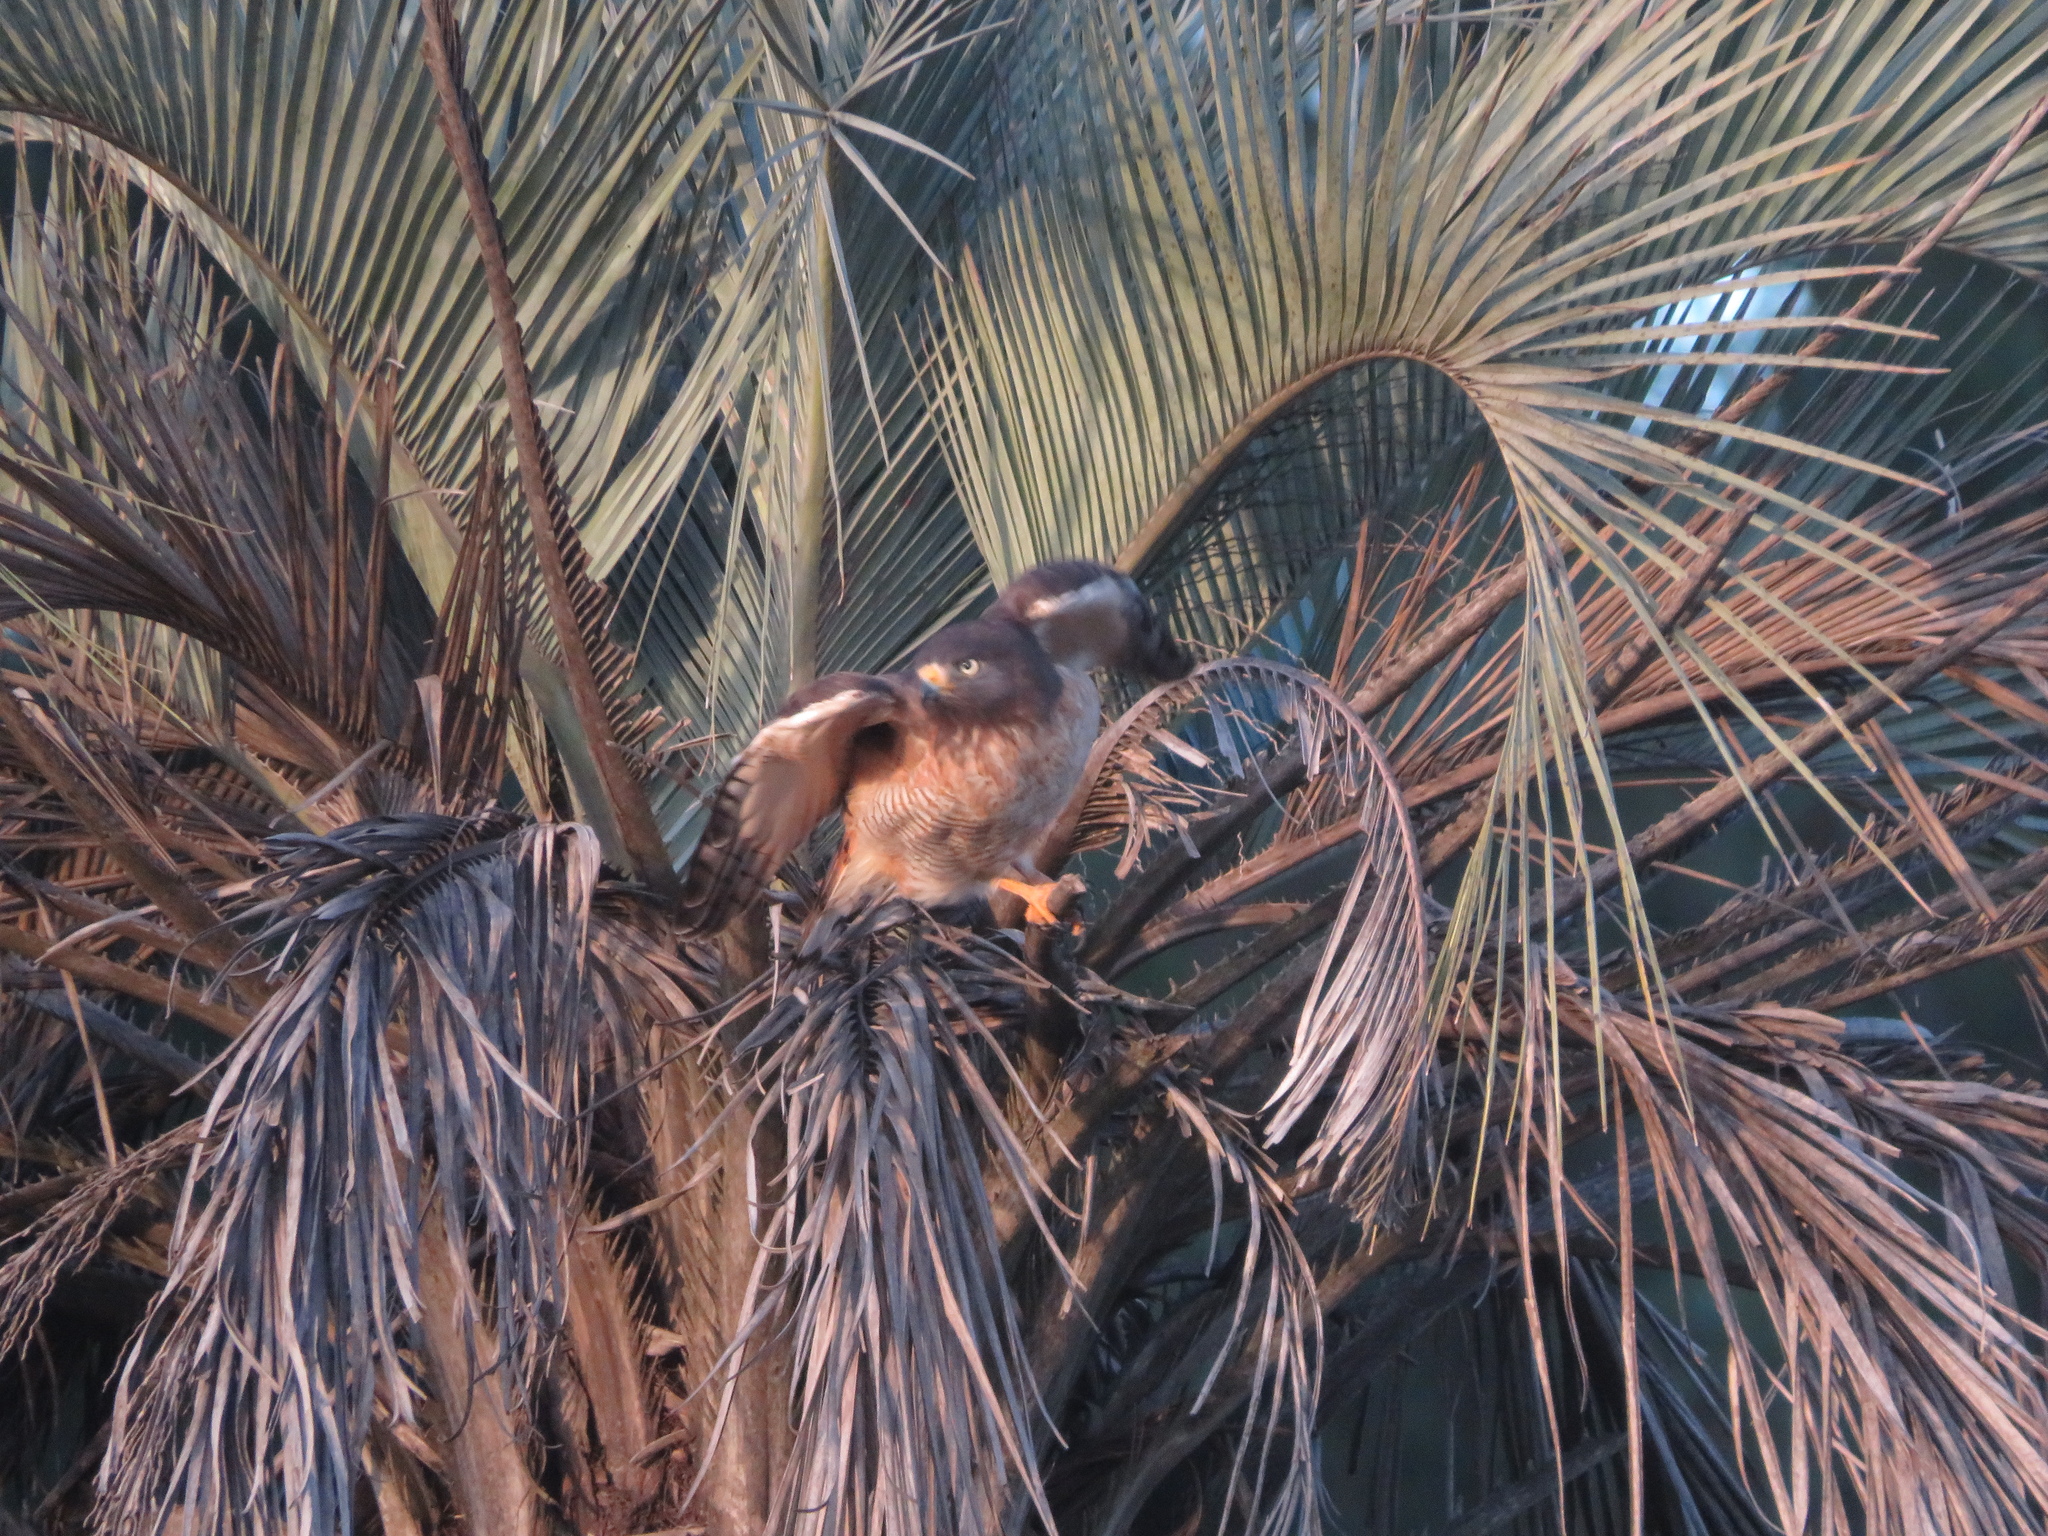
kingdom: Animalia
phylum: Chordata
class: Aves
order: Accipitriformes
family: Accipitridae
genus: Rupornis
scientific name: Rupornis magnirostris
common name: Roadside hawk
